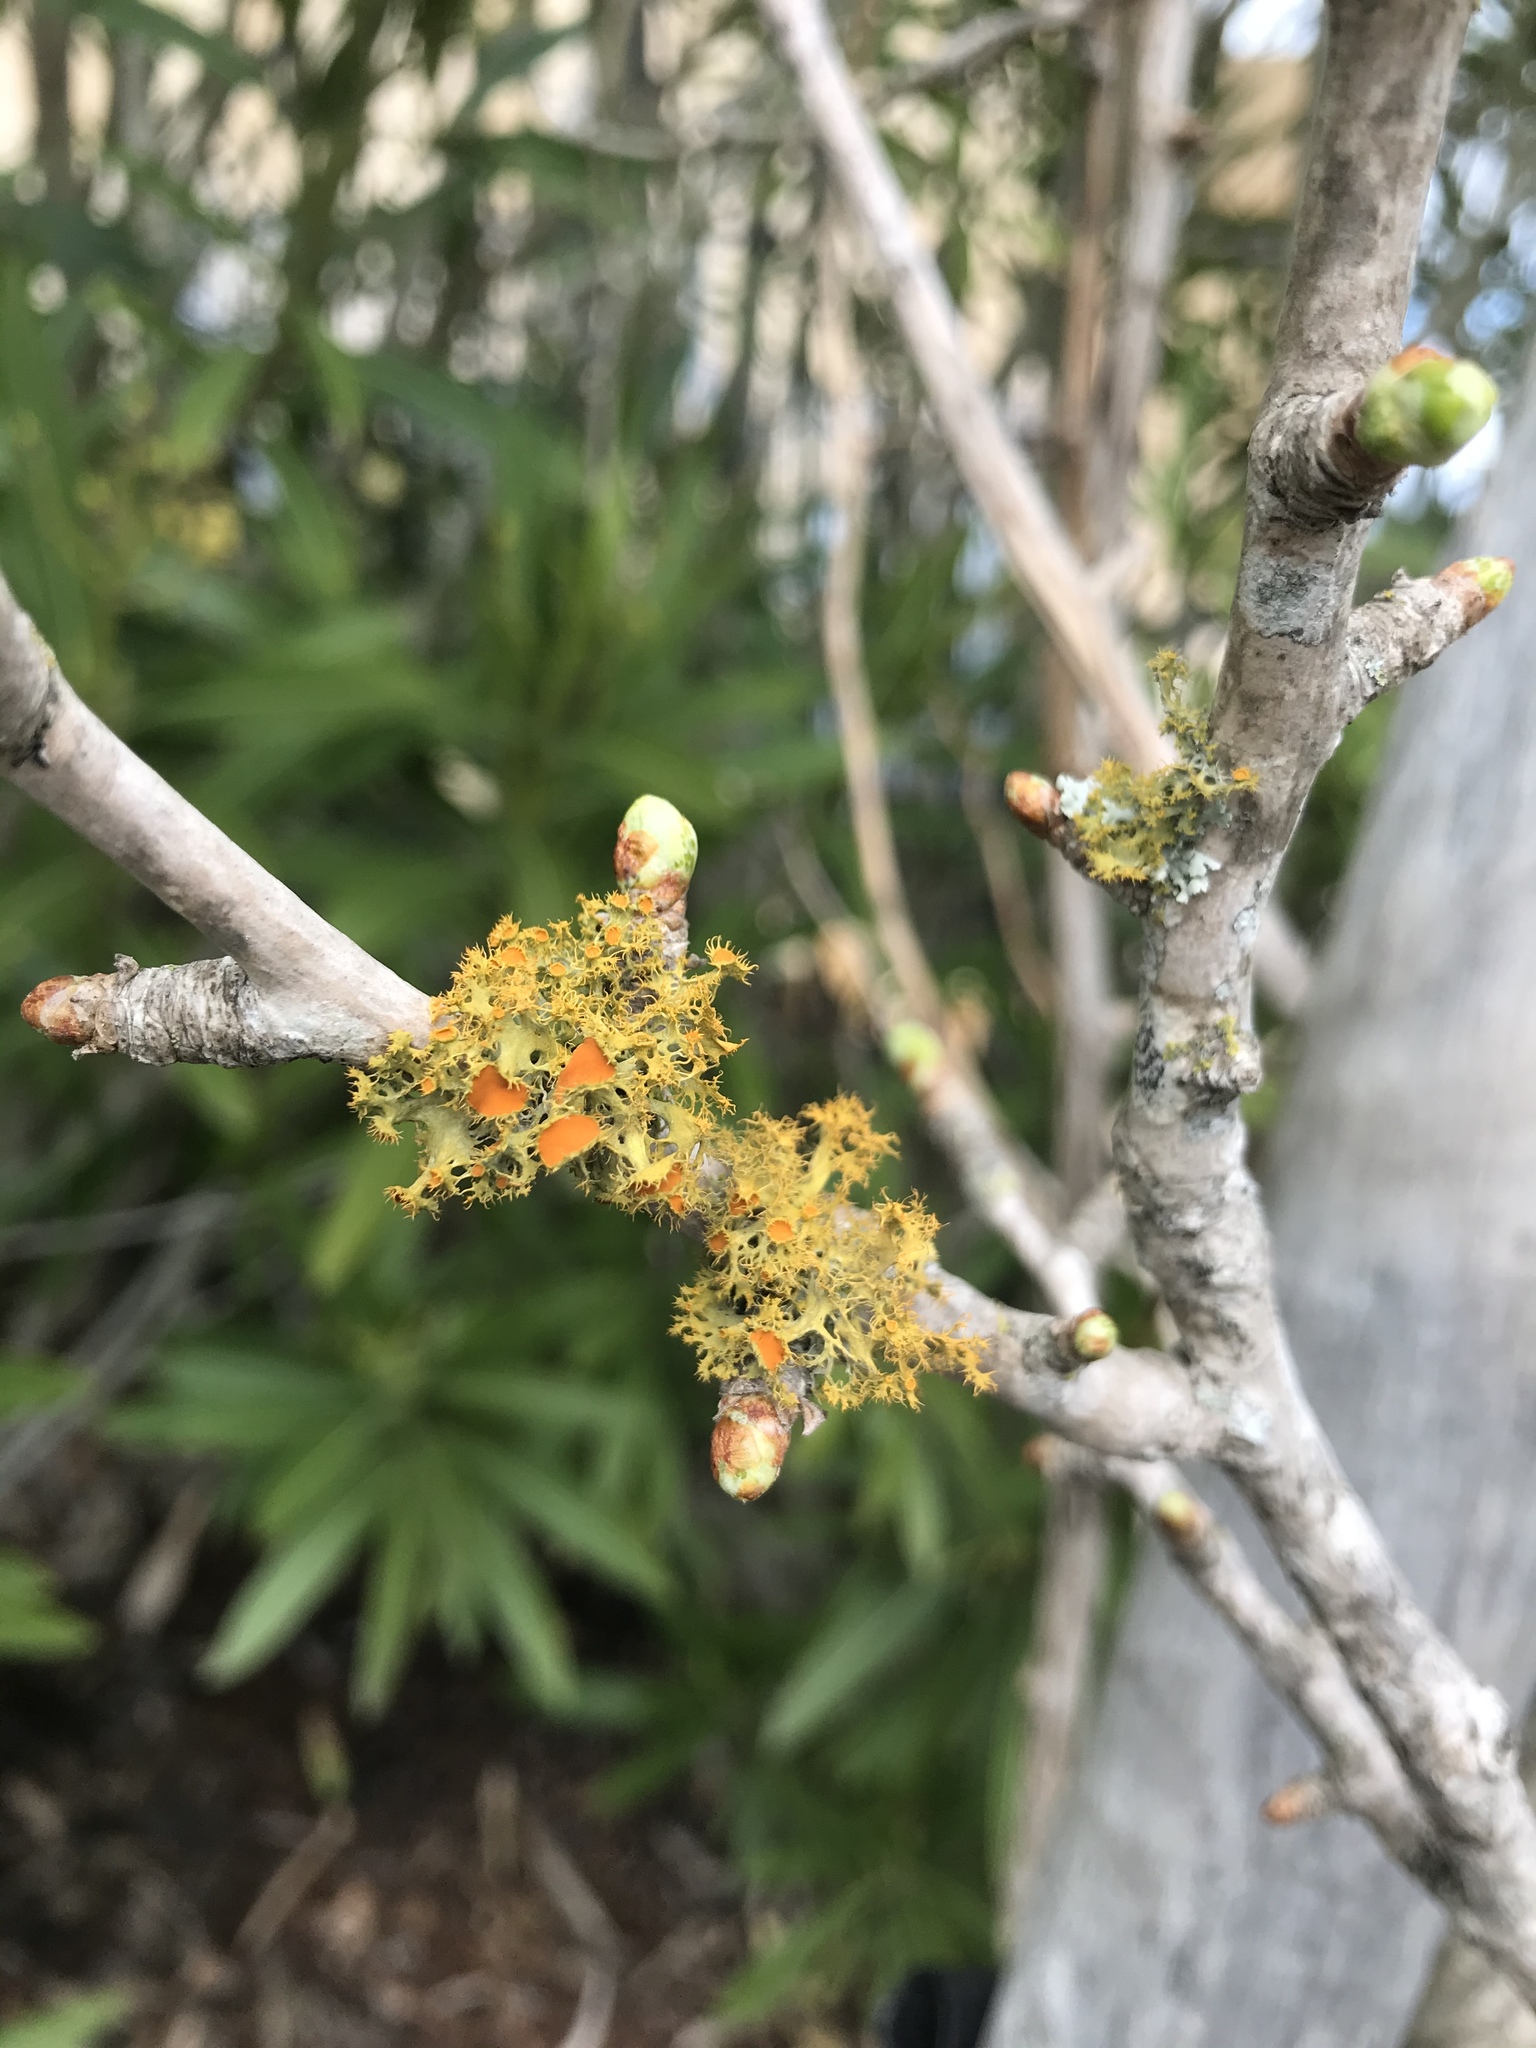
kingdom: Fungi
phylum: Ascomycota
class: Lecanoromycetes
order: Teloschistales
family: Teloschistaceae
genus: Niorma
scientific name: Niorma chrysophthalma
